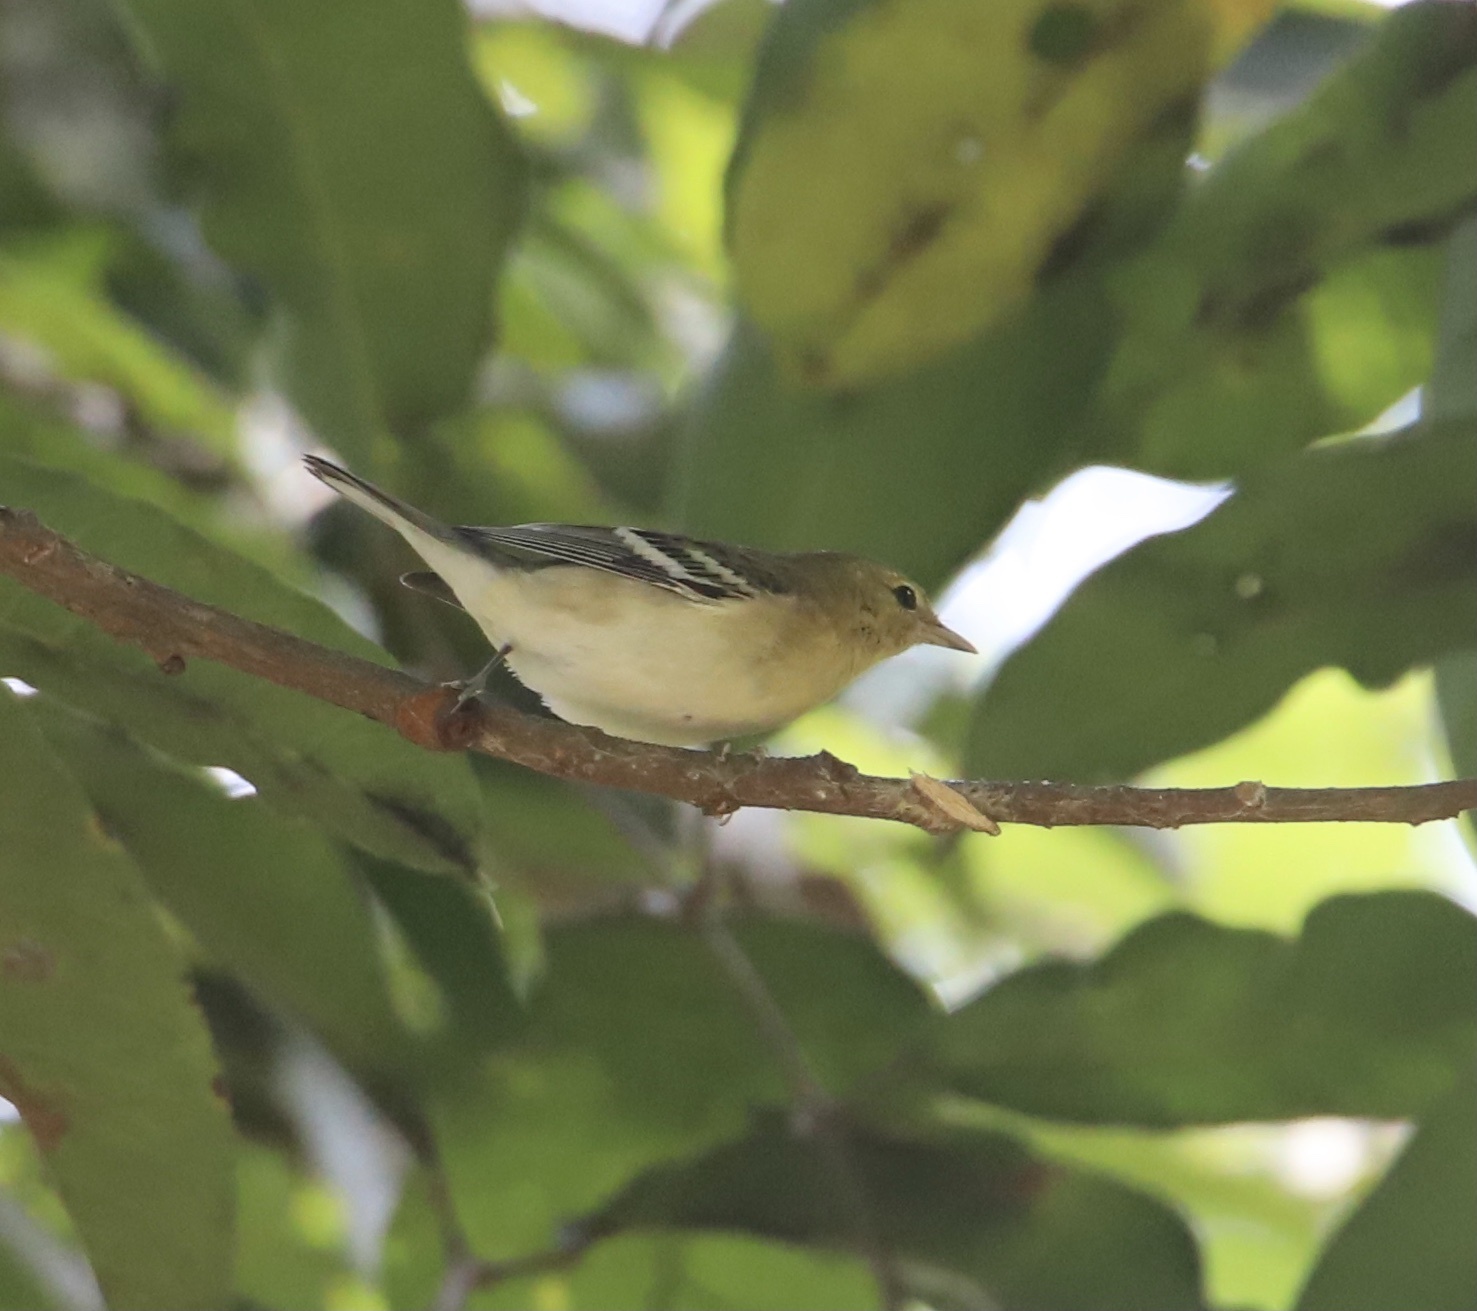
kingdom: Animalia
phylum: Chordata
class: Aves
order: Passeriformes
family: Parulidae
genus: Setophaga
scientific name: Setophaga castanea
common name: Bay-breasted warbler
